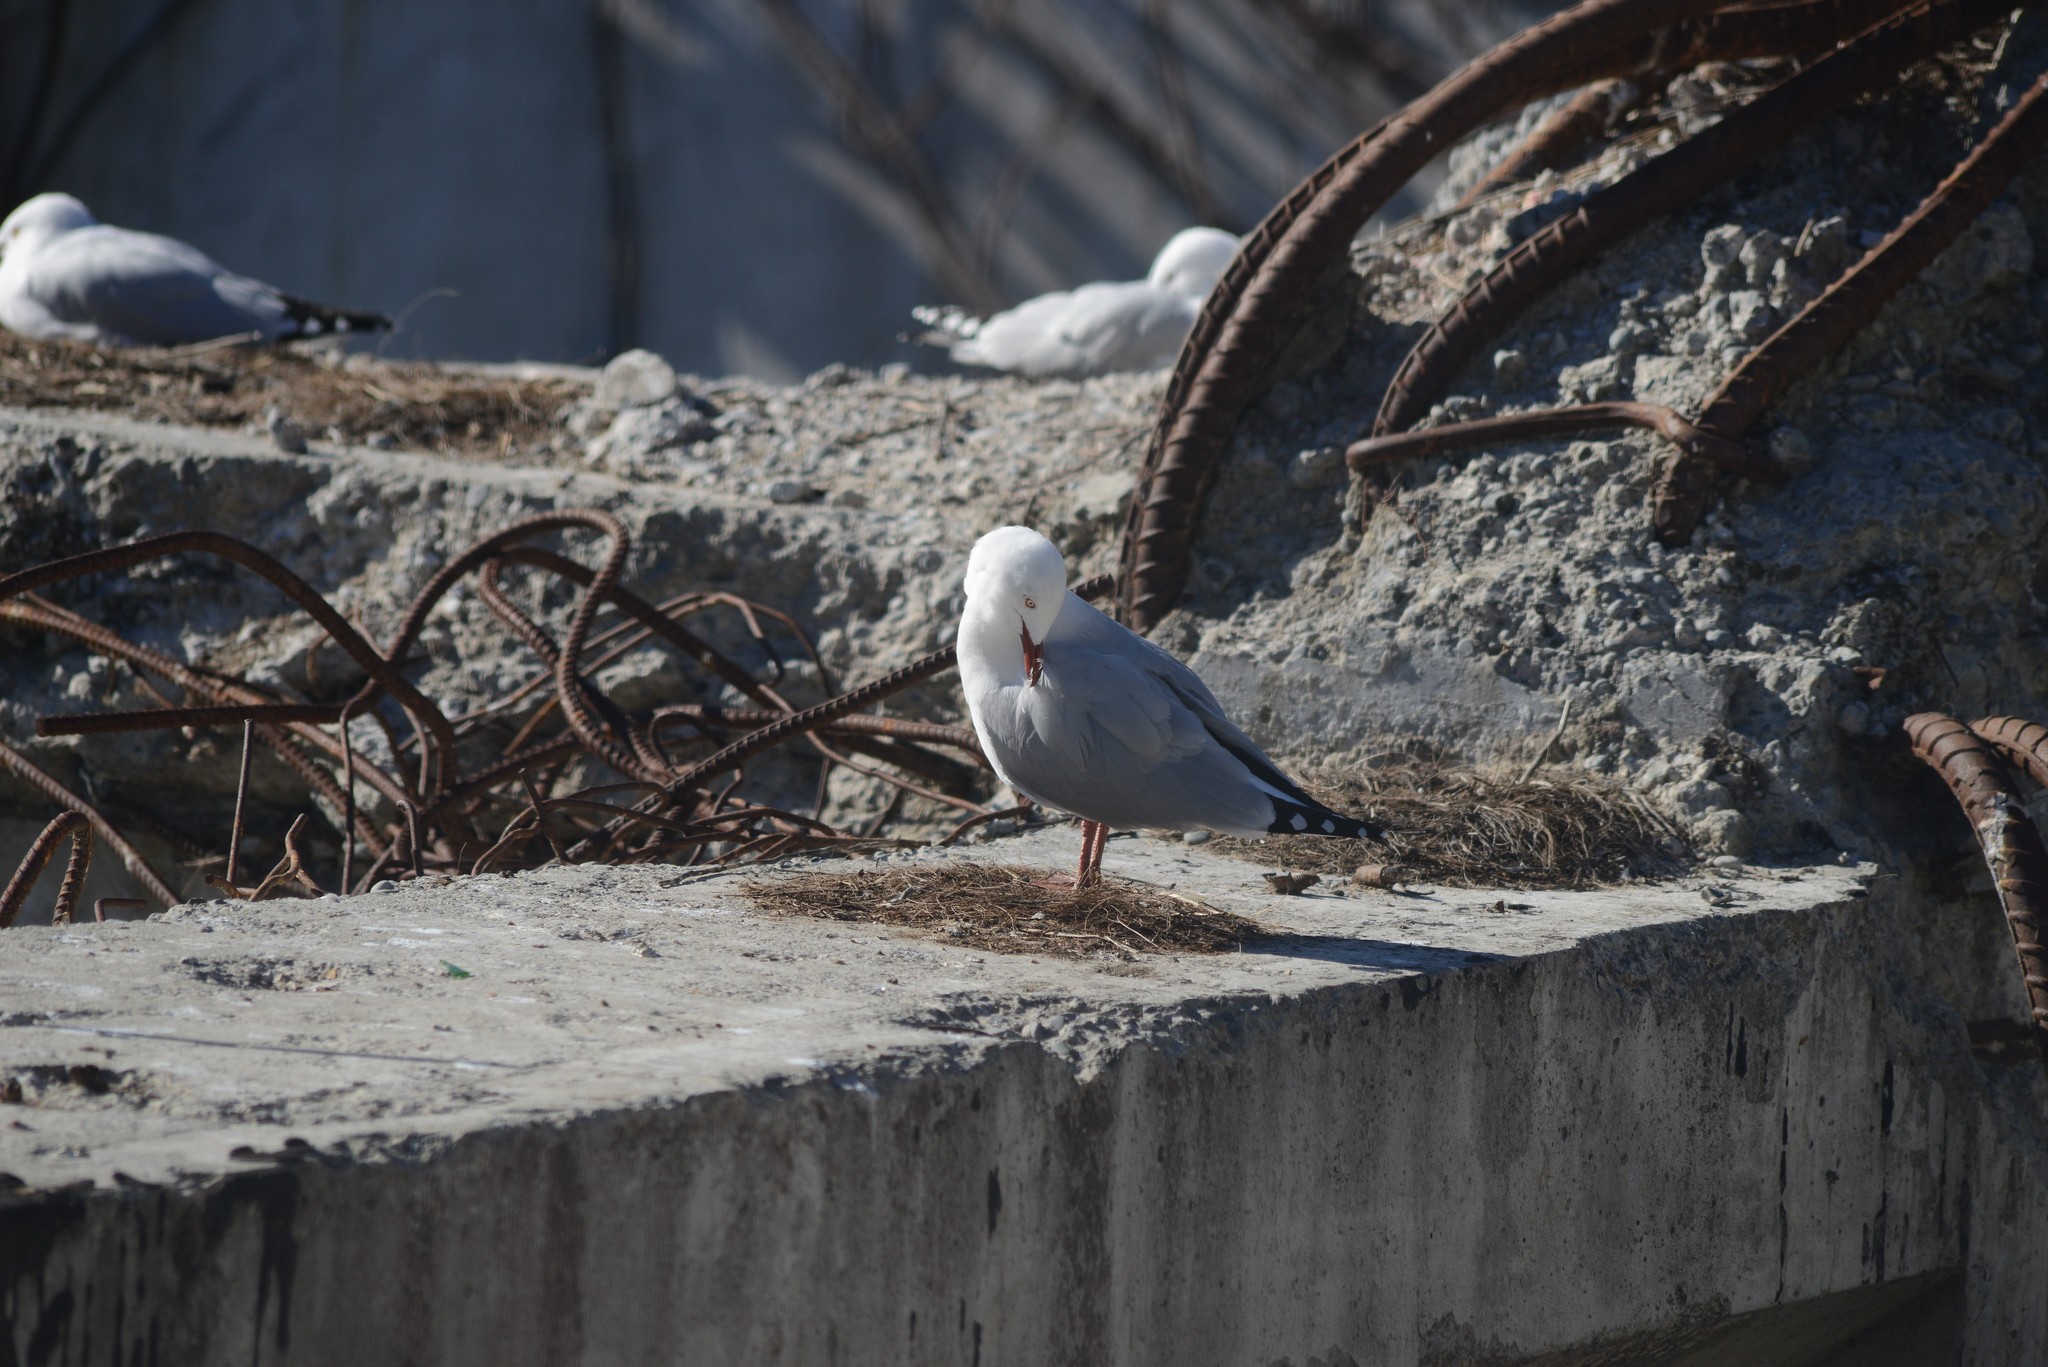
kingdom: Animalia
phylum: Chordata
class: Aves
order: Charadriiformes
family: Laridae
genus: Chroicocephalus
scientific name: Chroicocephalus novaehollandiae
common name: Silver gull
